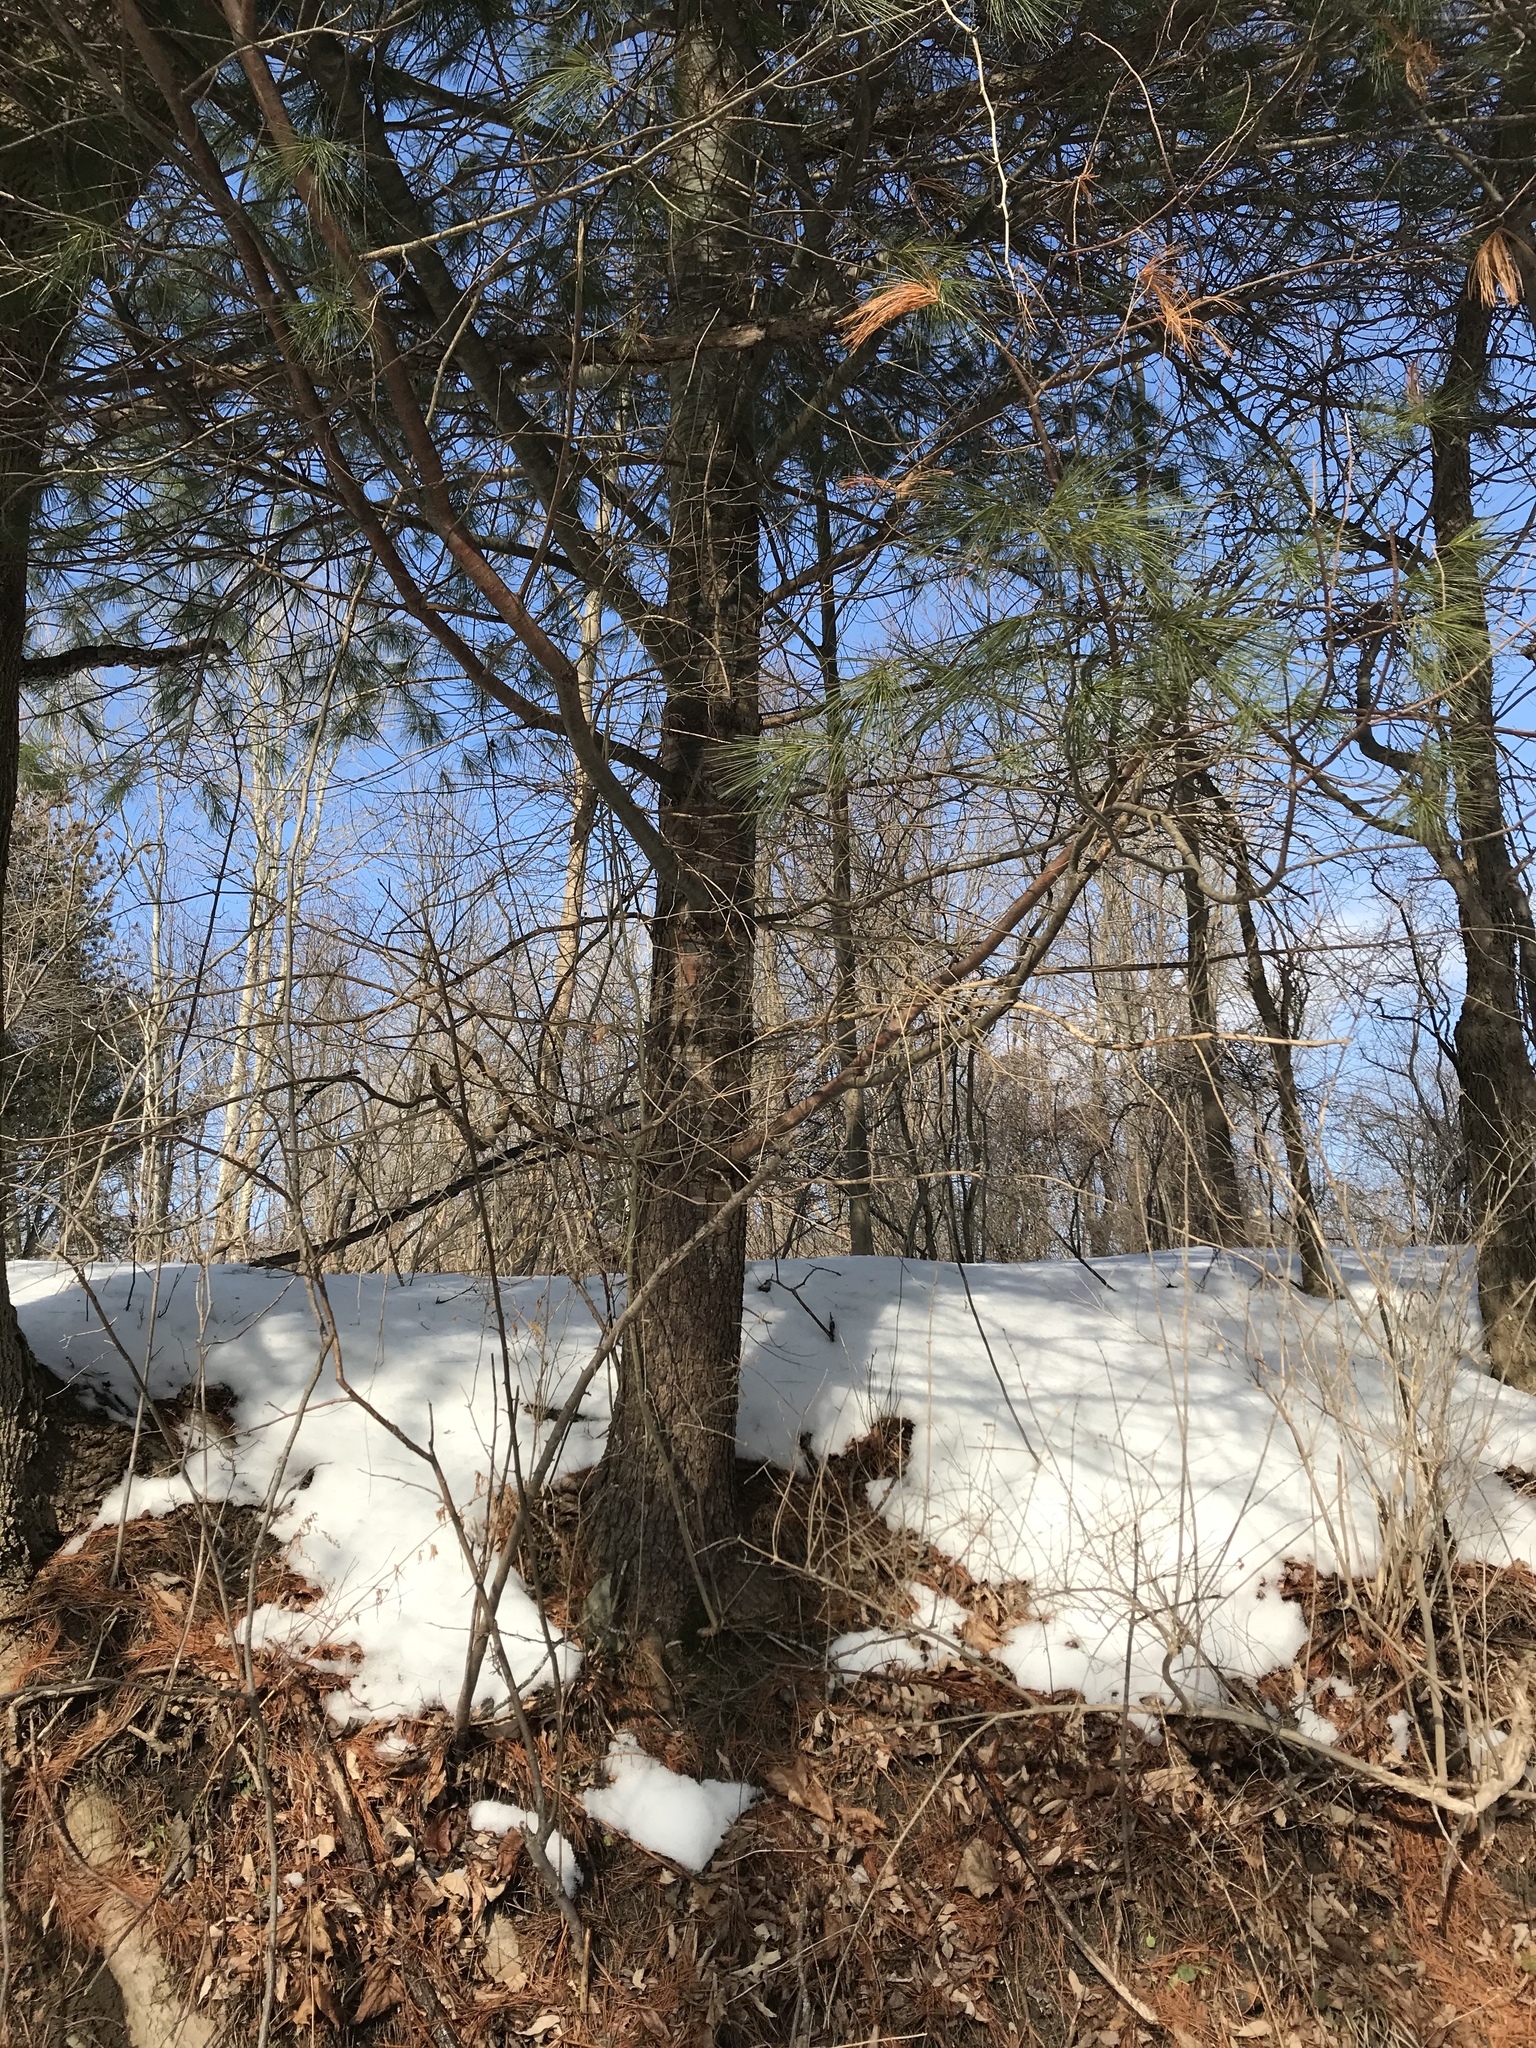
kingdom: Plantae
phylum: Tracheophyta
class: Pinopsida
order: Pinales
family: Pinaceae
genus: Pinus
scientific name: Pinus strobus
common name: Weymouth pine
